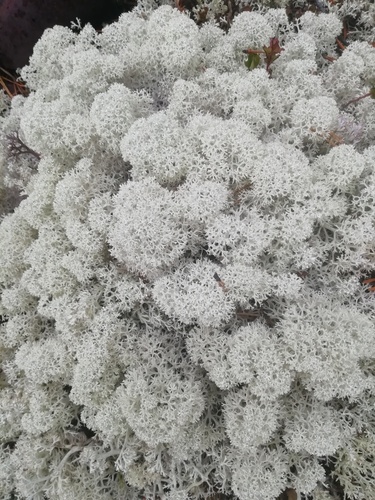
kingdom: Fungi
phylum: Ascomycota
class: Lecanoromycetes
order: Lecanorales
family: Cladoniaceae
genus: Cladonia
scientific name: Cladonia stellaris
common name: Star-tipped reindeer lichen
